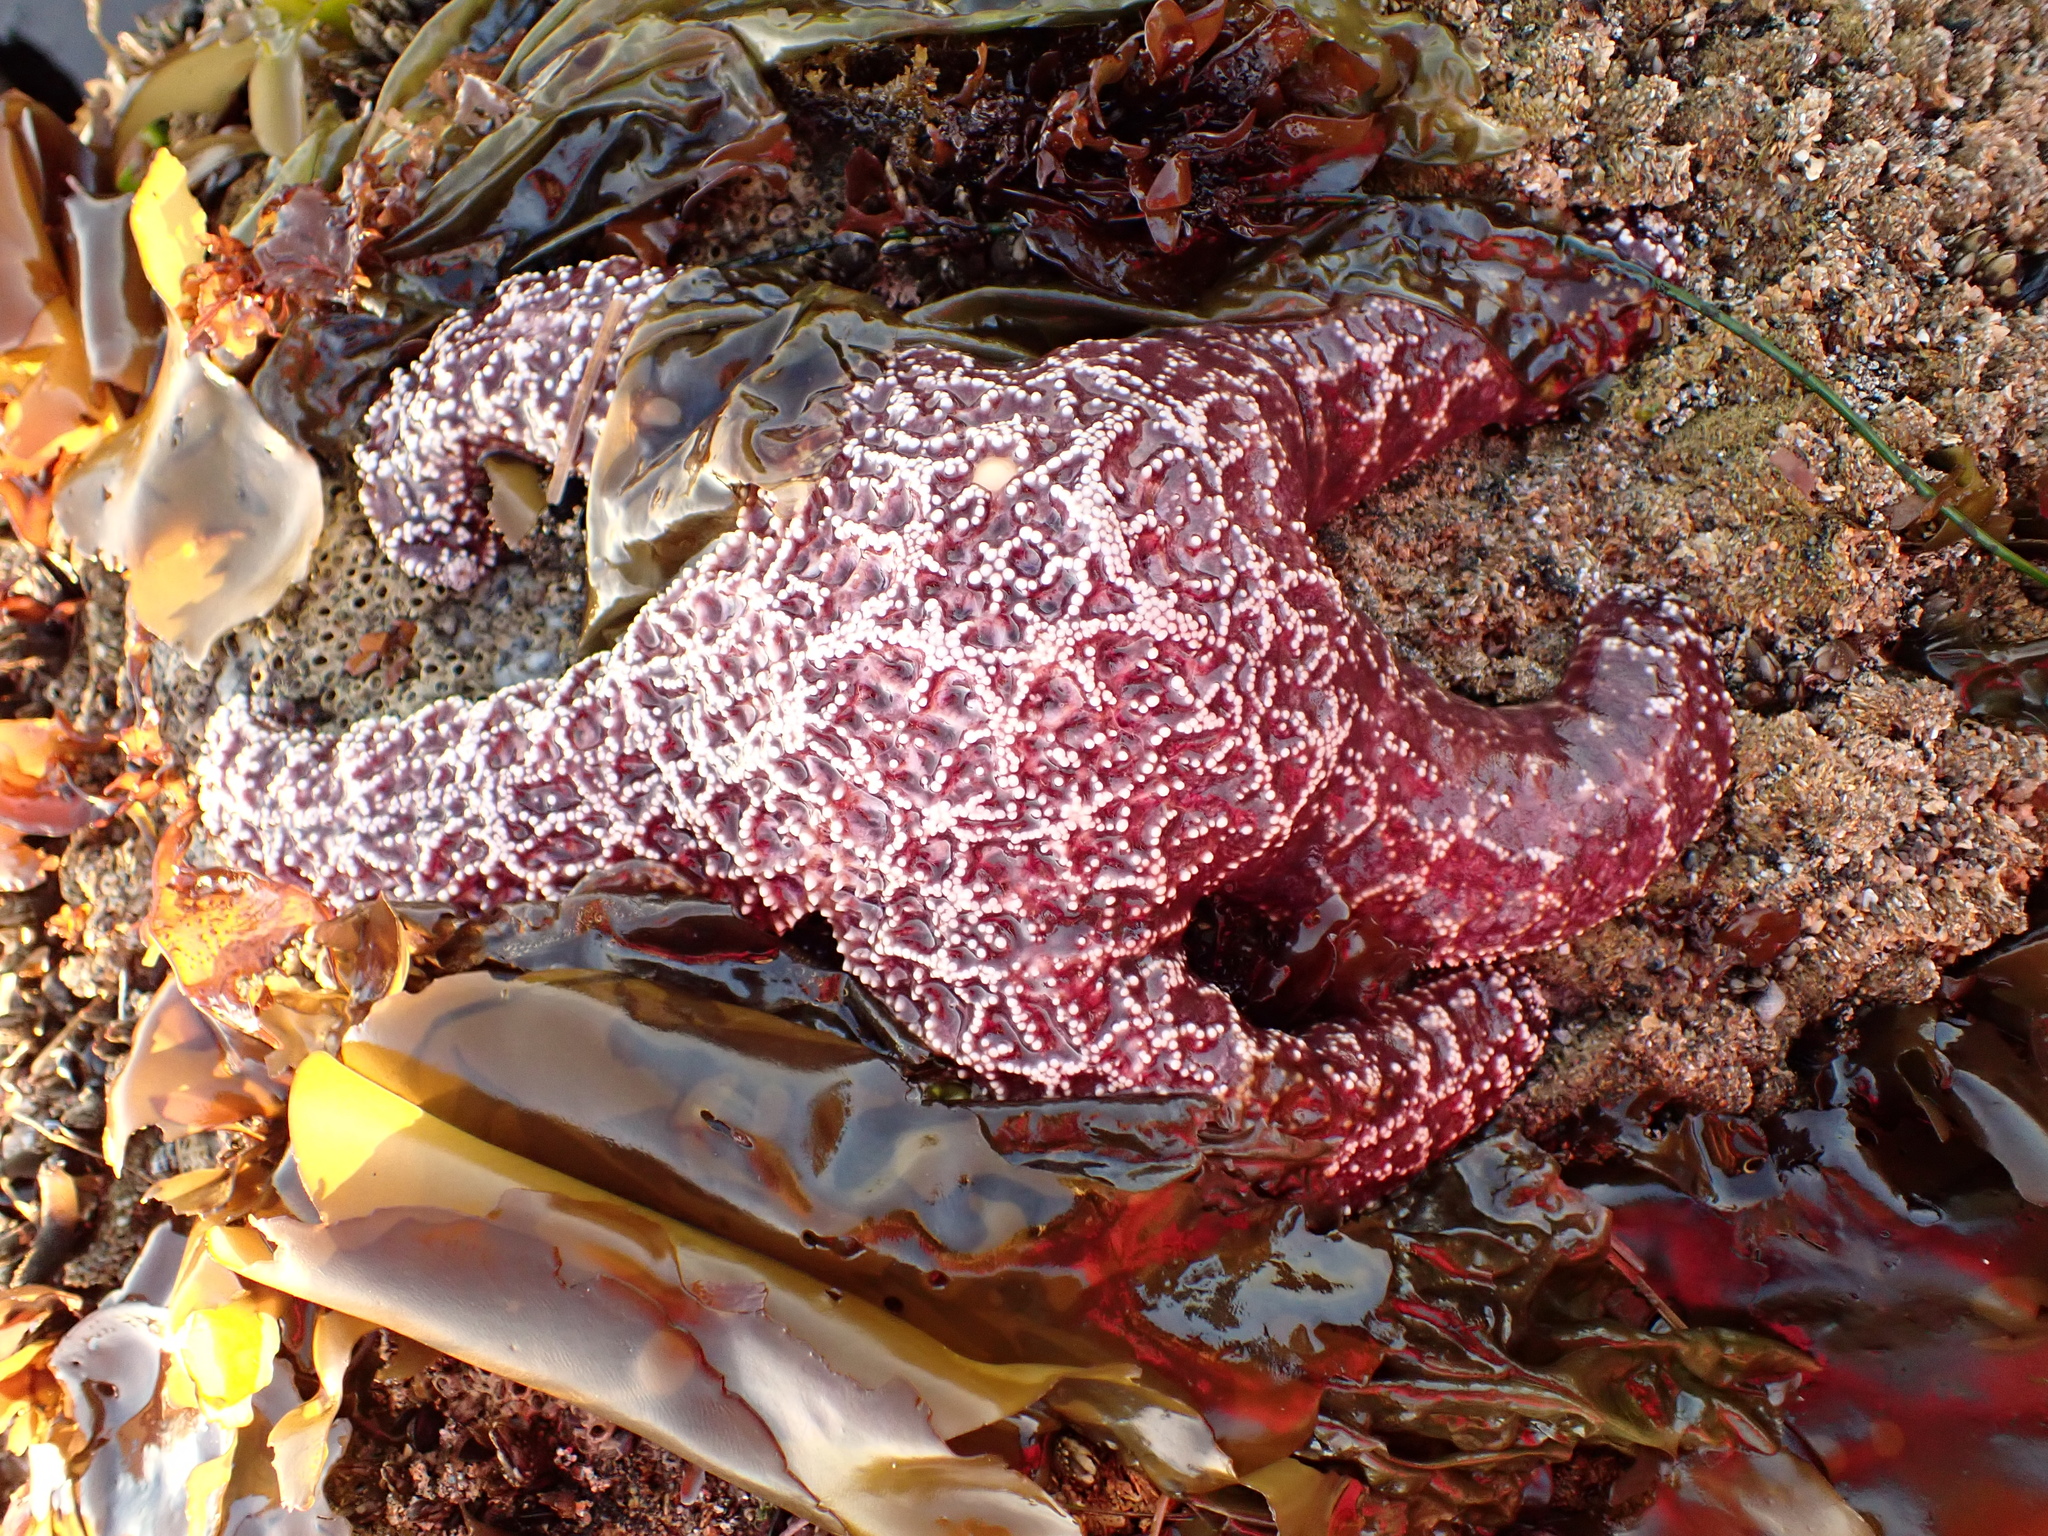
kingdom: Animalia
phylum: Echinodermata
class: Asteroidea
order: Forcipulatida
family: Asteriidae
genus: Pisaster
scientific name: Pisaster ochraceus
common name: Ochre stars
